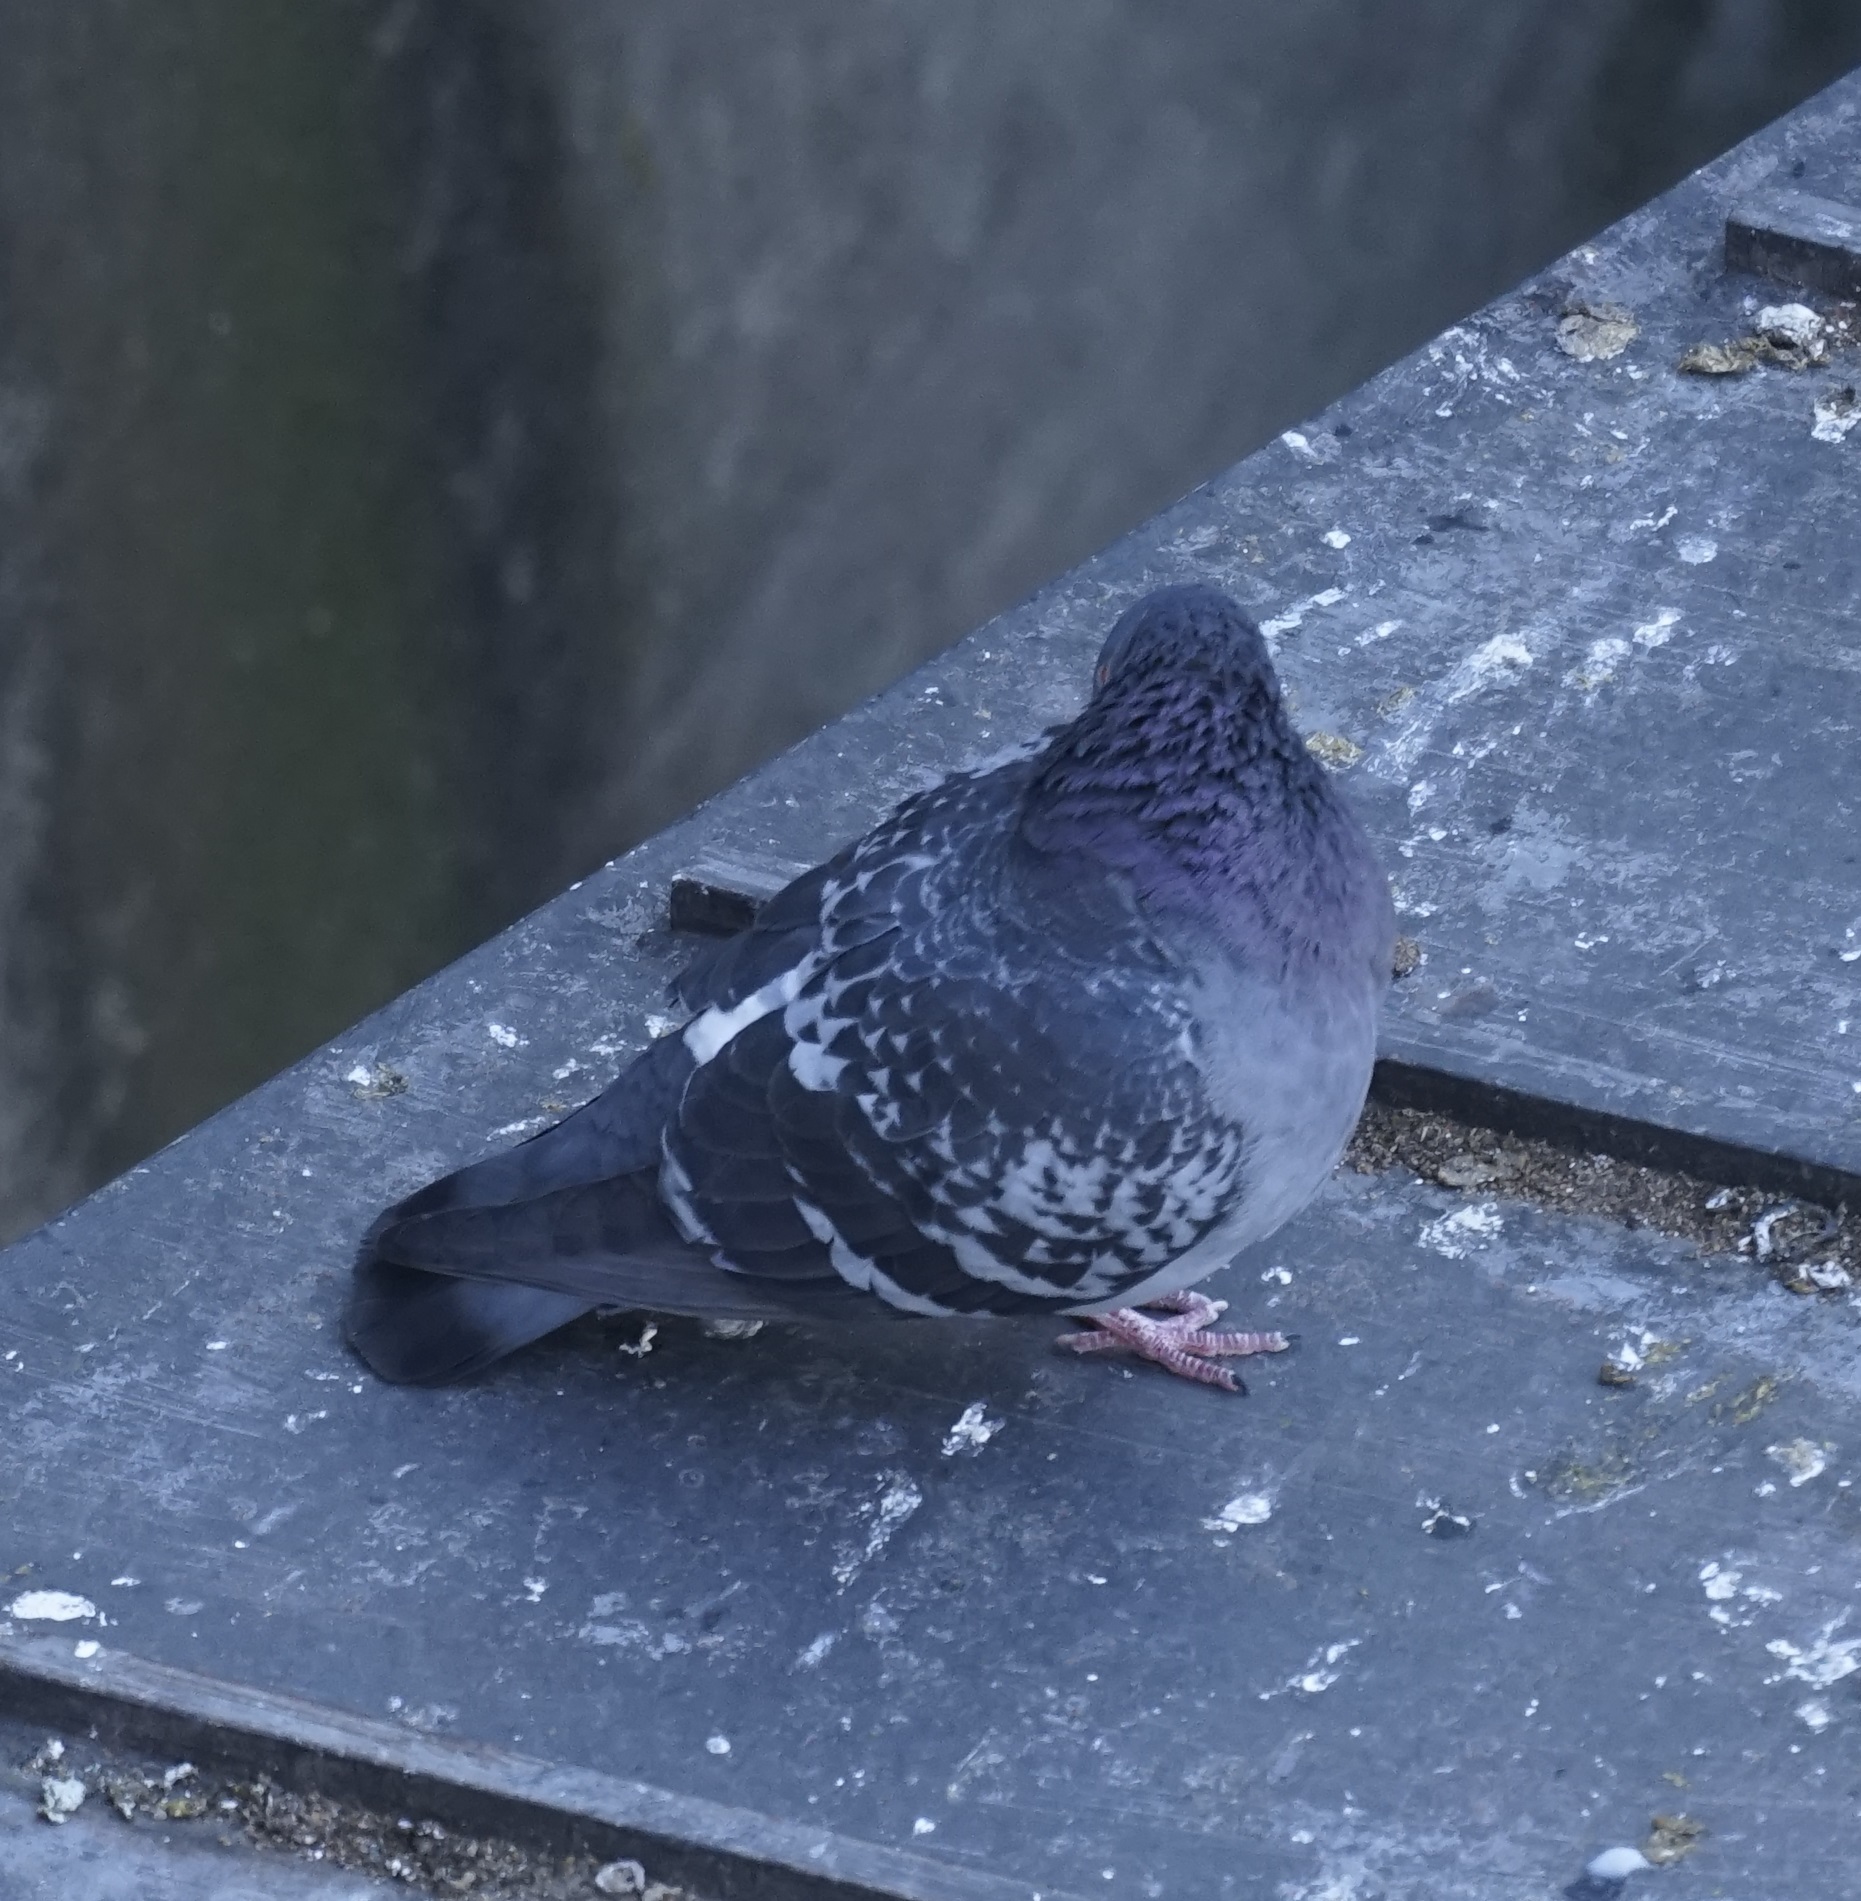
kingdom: Animalia
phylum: Chordata
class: Aves
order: Columbiformes
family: Columbidae
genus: Columba
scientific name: Columba livia
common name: Rock pigeon
